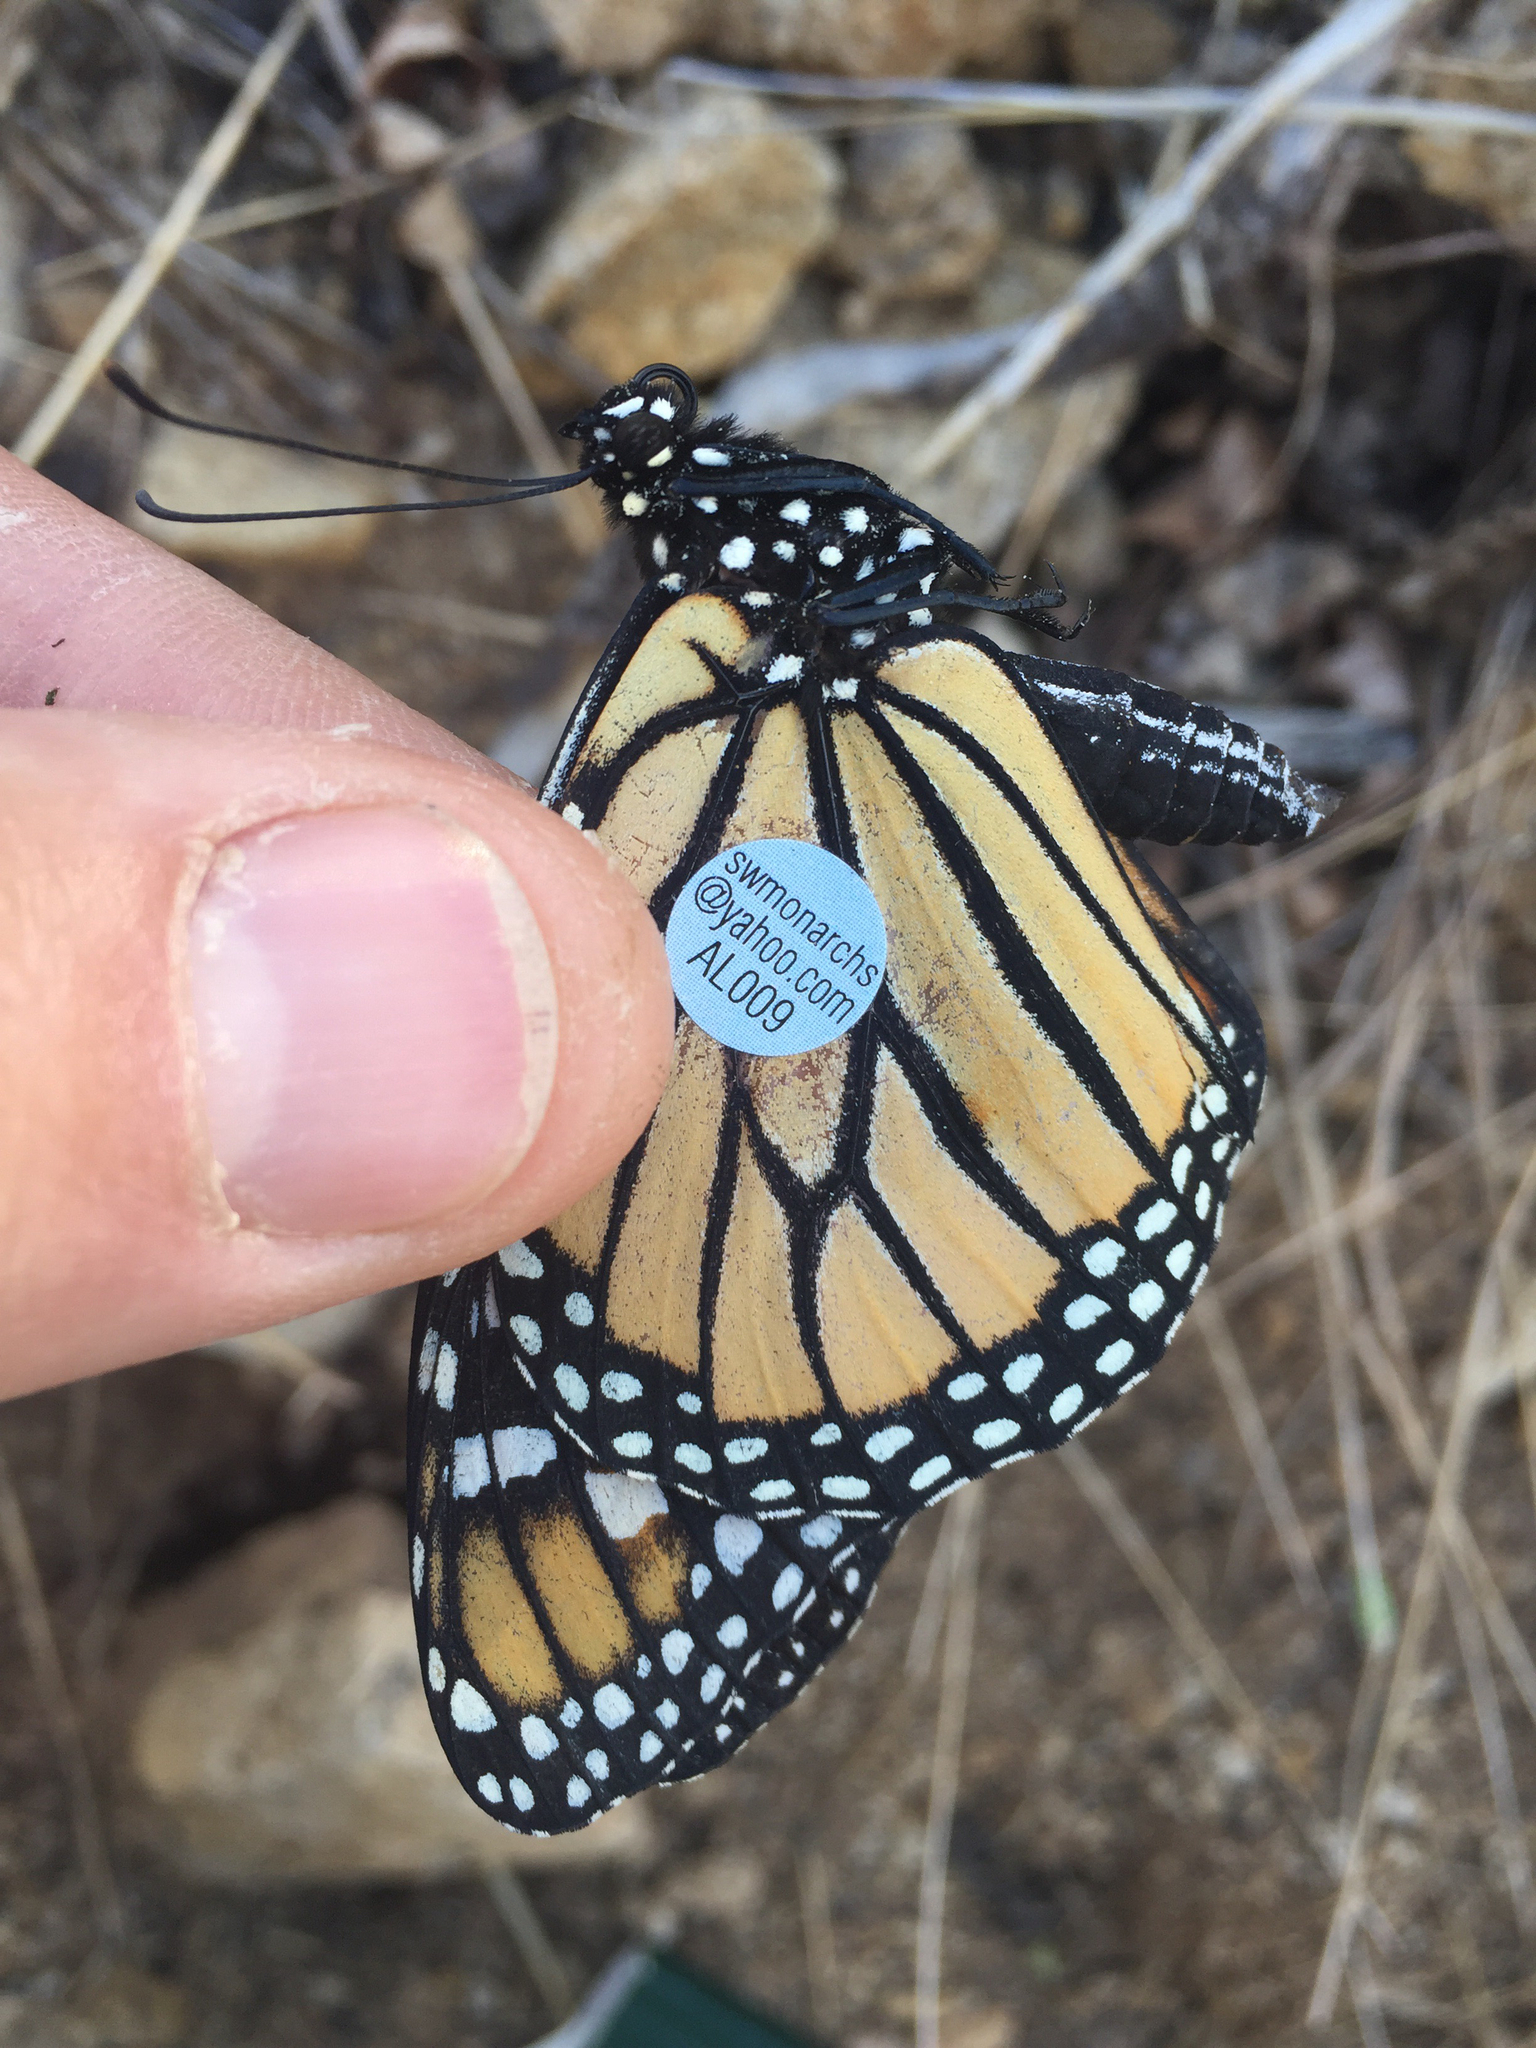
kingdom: Animalia
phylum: Arthropoda
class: Insecta
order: Lepidoptera
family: Nymphalidae
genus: Danaus
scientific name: Danaus plexippus
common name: Monarch
